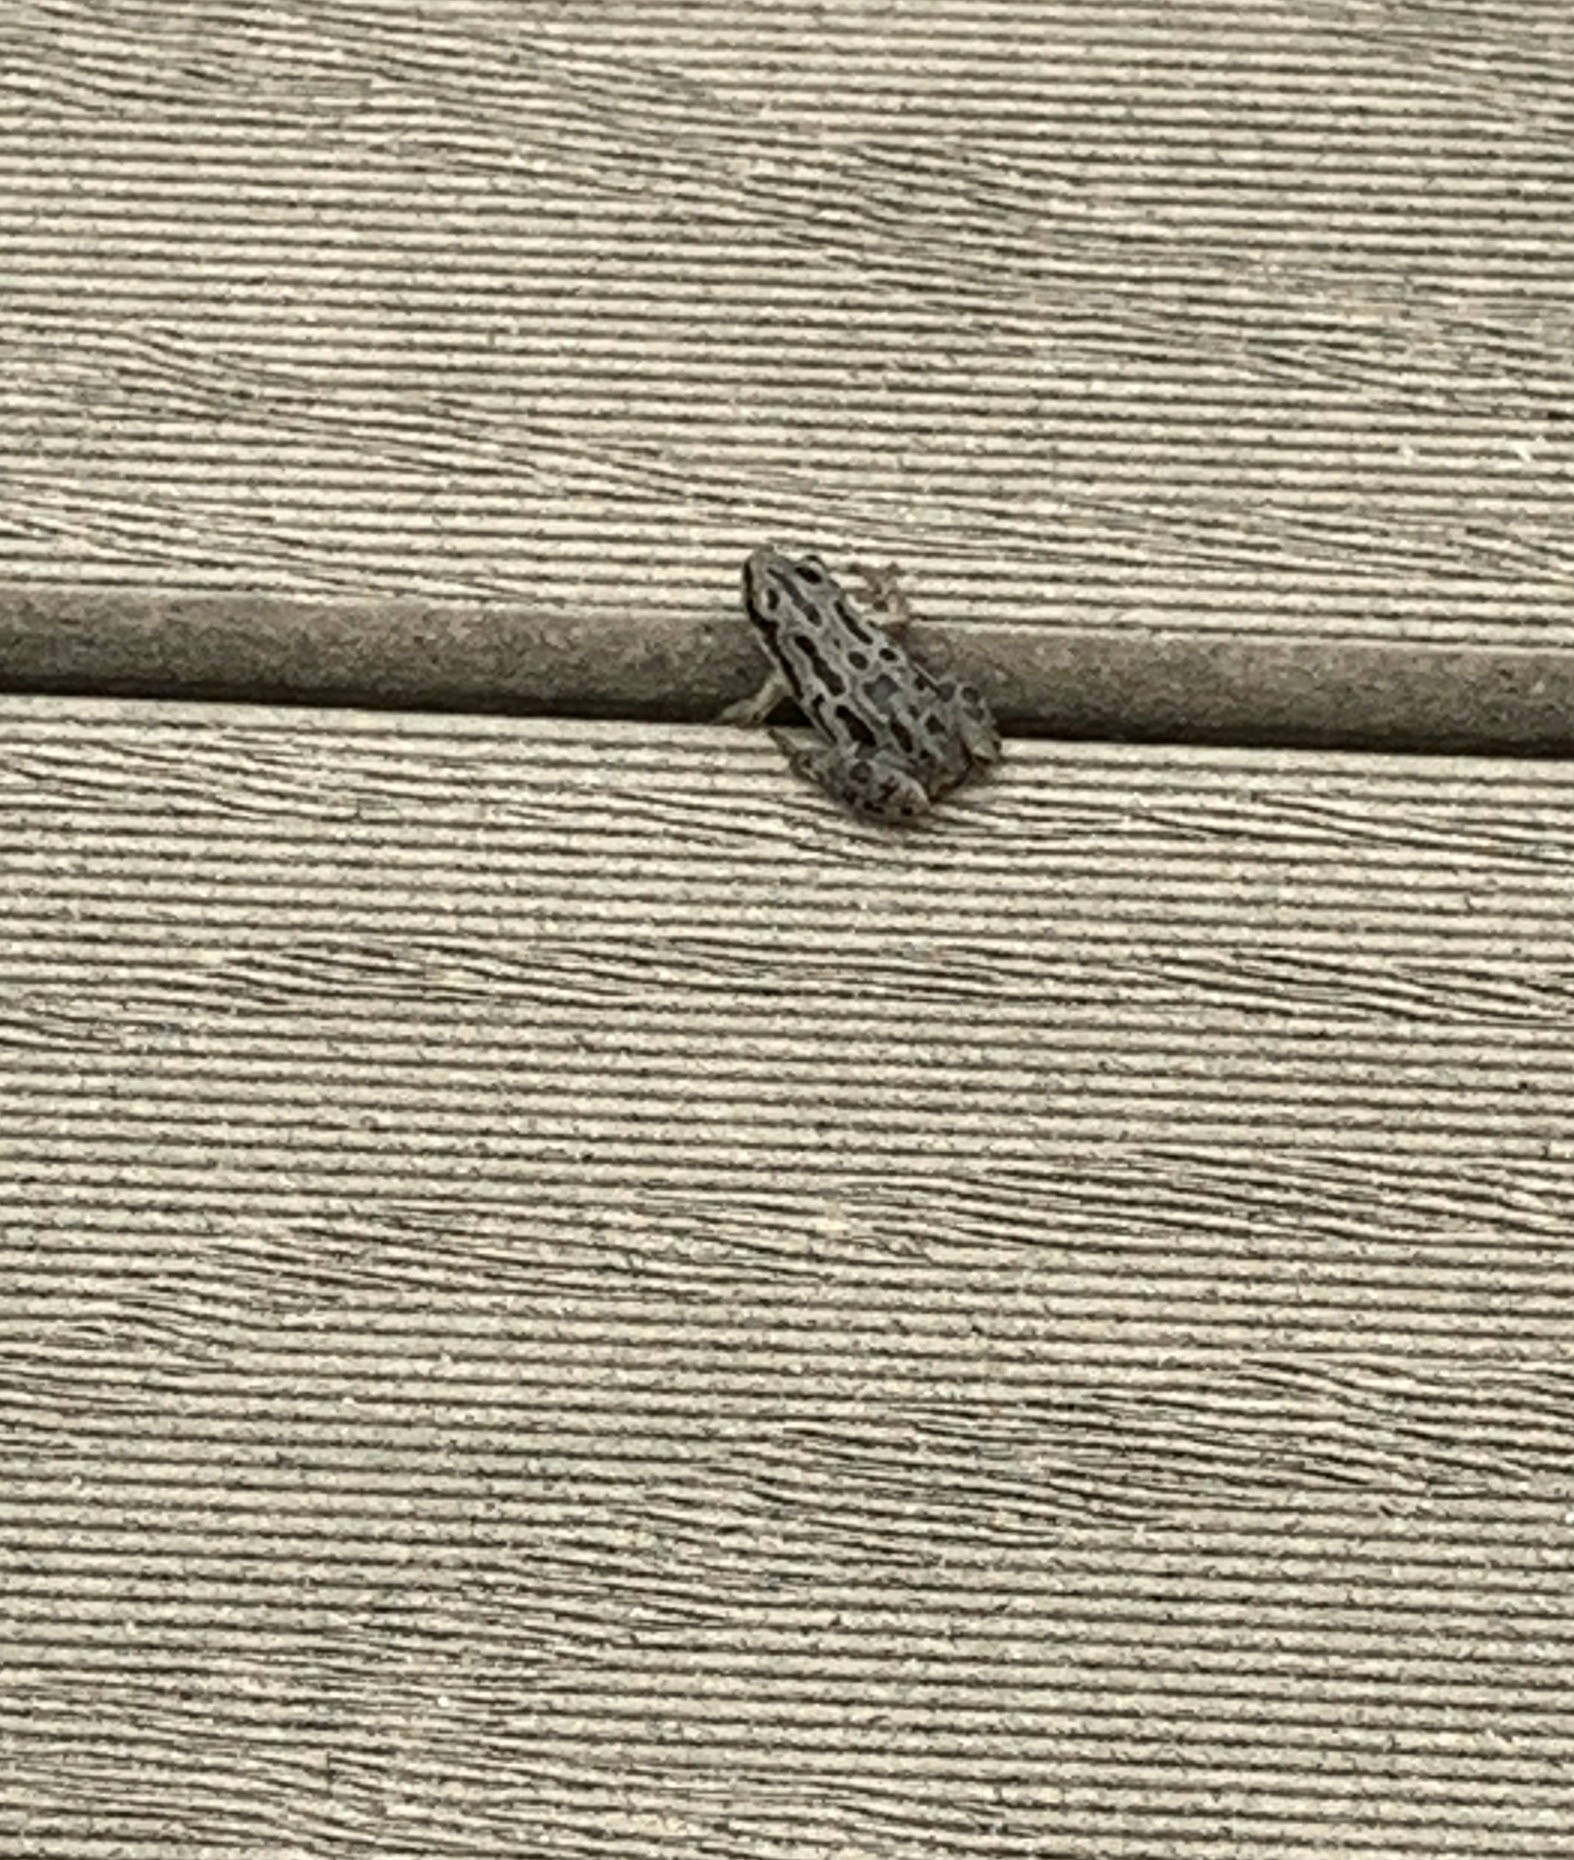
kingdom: Animalia
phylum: Chordata
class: Amphibia
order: Anura
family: Hylidae
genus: Pseudacris
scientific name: Pseudacris maculata
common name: Boreal chorus frog
